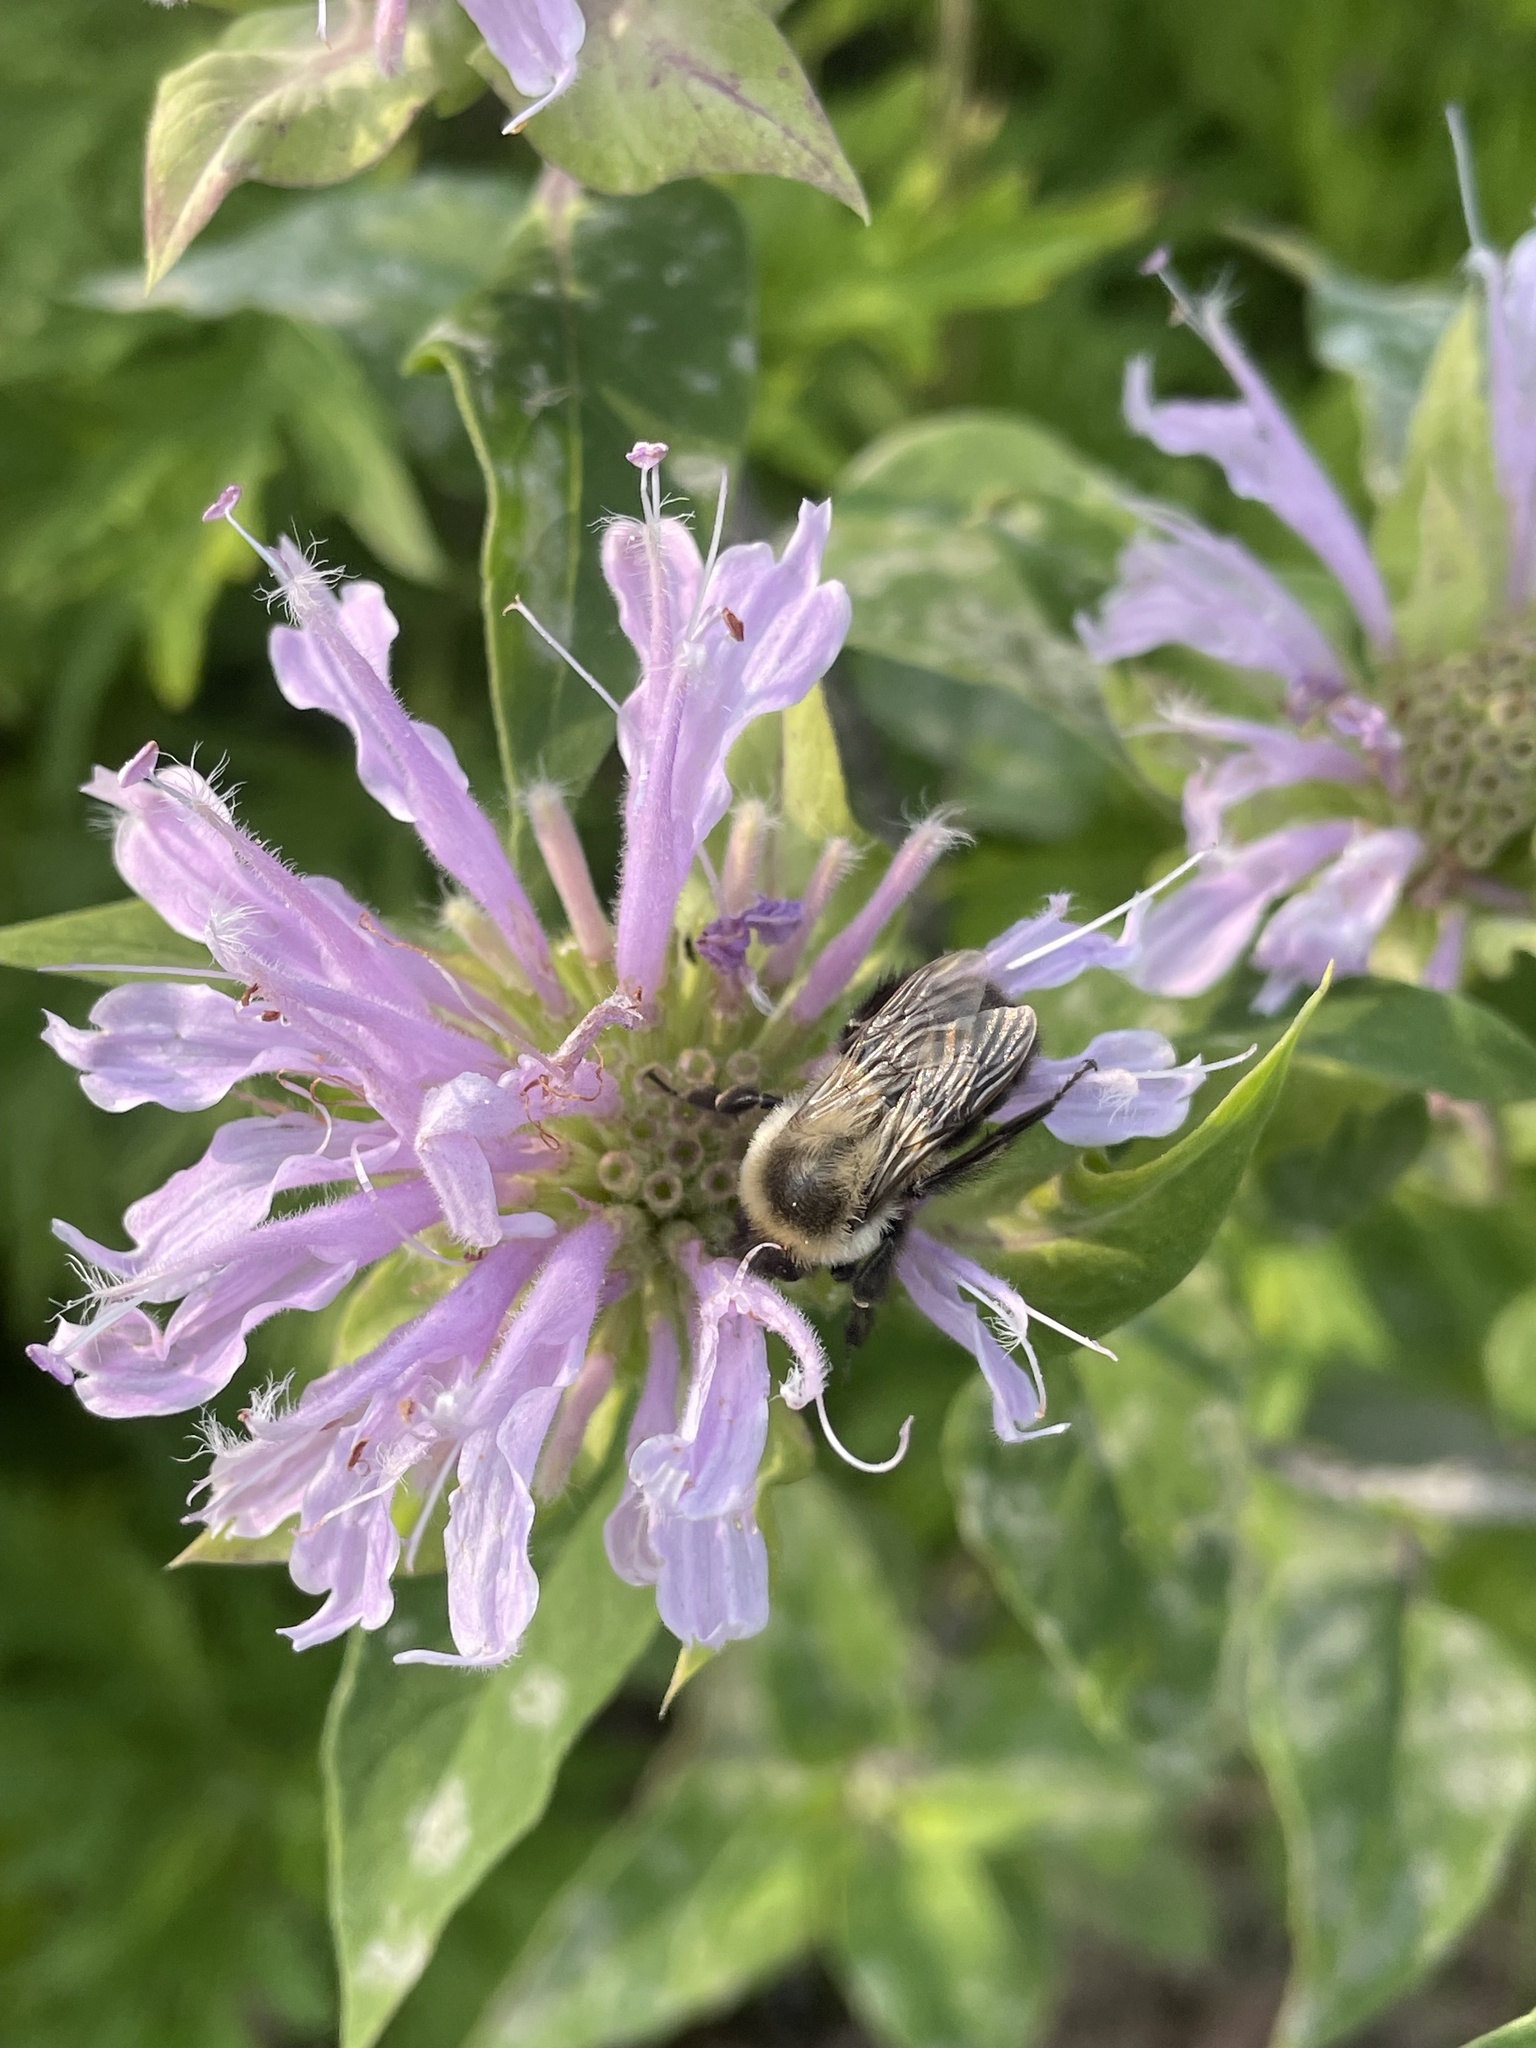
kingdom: Plantae
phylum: Tracheophyta
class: Magnoliopsida
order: Lamiales
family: Lamiaceae
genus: Monarda
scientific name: Monarda fistulosa
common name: Purple beebalm
